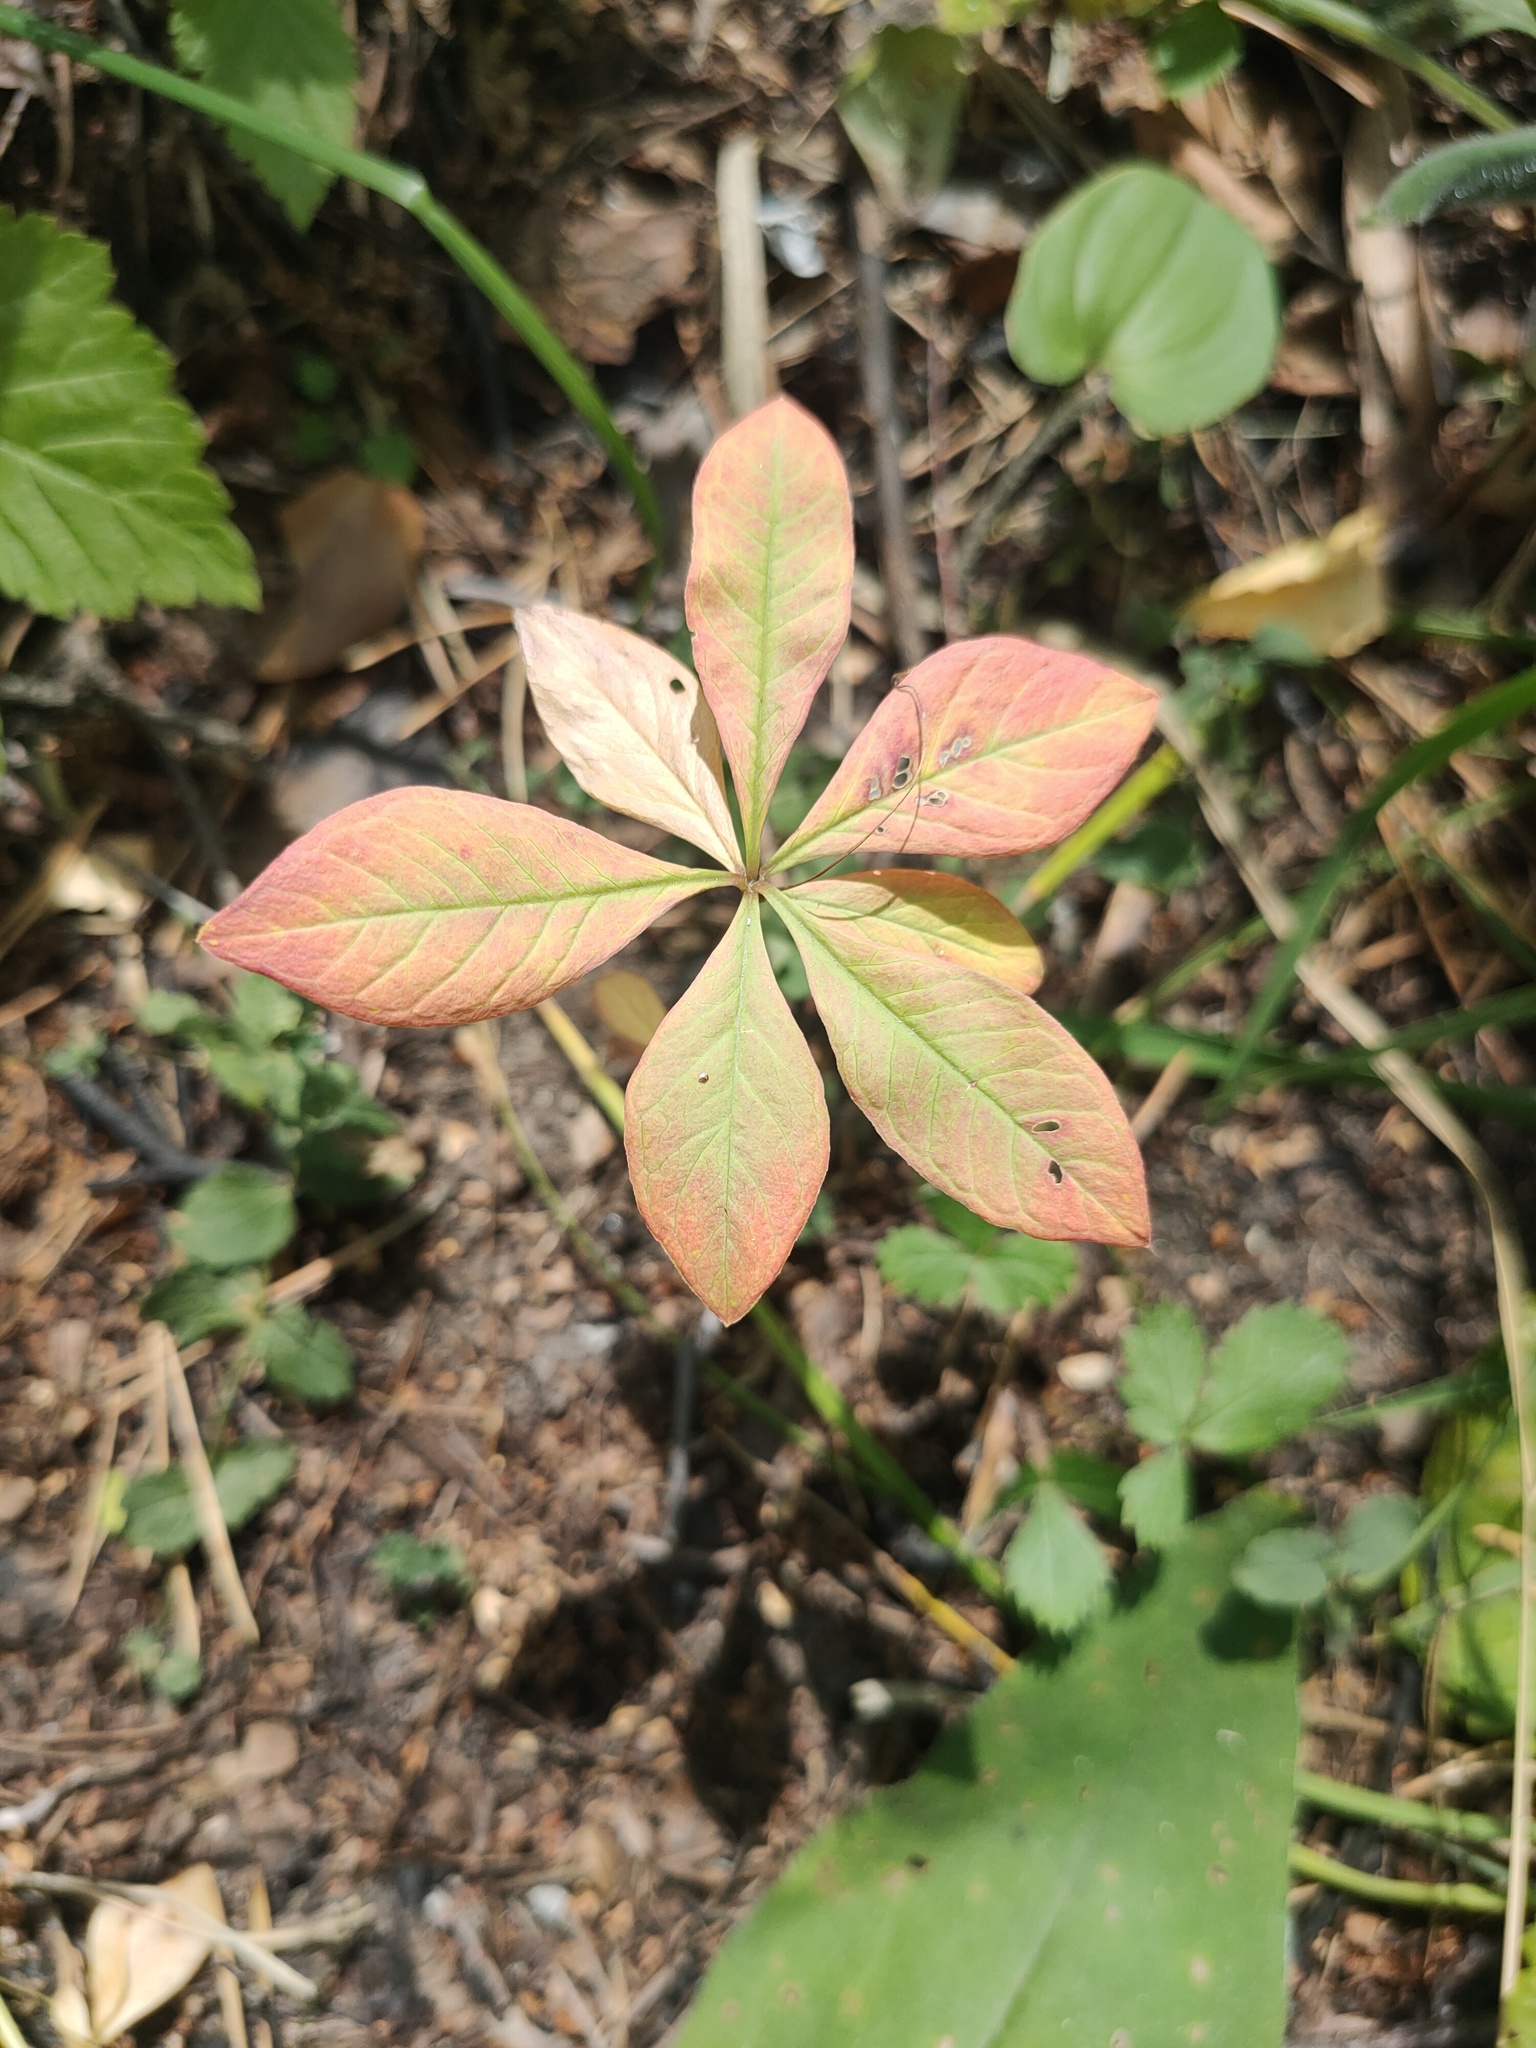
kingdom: Plantae
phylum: Tracheophyta
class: Magnoliopsida
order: Ericales
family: Primulaceae
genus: Lysimachia
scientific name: Lysimachia europaea
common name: Arctic starflower
